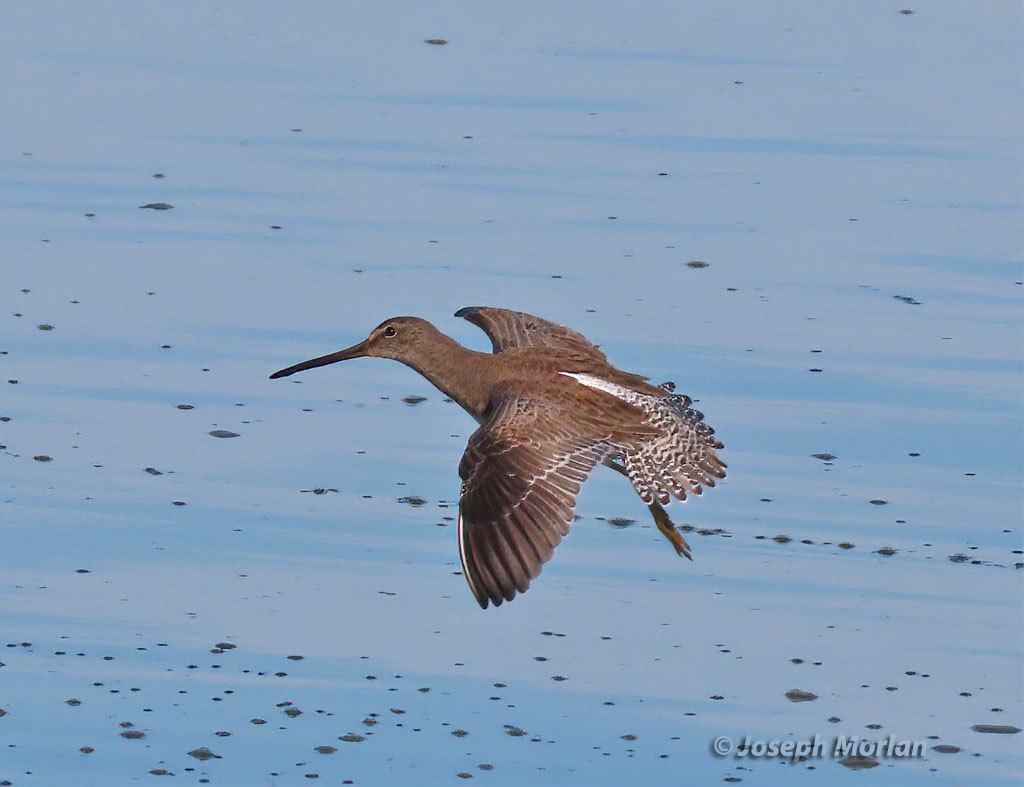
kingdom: Animalia
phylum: Chordata
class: Aves
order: Charadriiformes
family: Scolopacidae
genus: Limnodromus
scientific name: Limnodromus griseus
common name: Short-billed dowitcher
